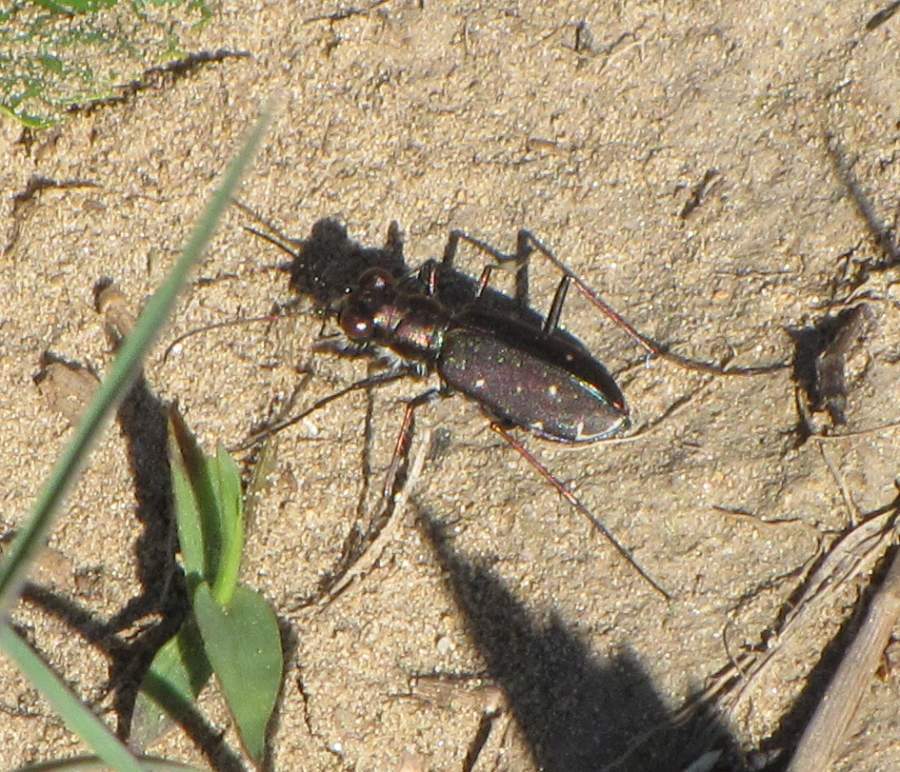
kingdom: Animalia
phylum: Arthropoda
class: Insecta
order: Coleoptera
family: Carabidae
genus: Cicindela
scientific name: Cicindela punctulata
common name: Punctured tiger beetle
